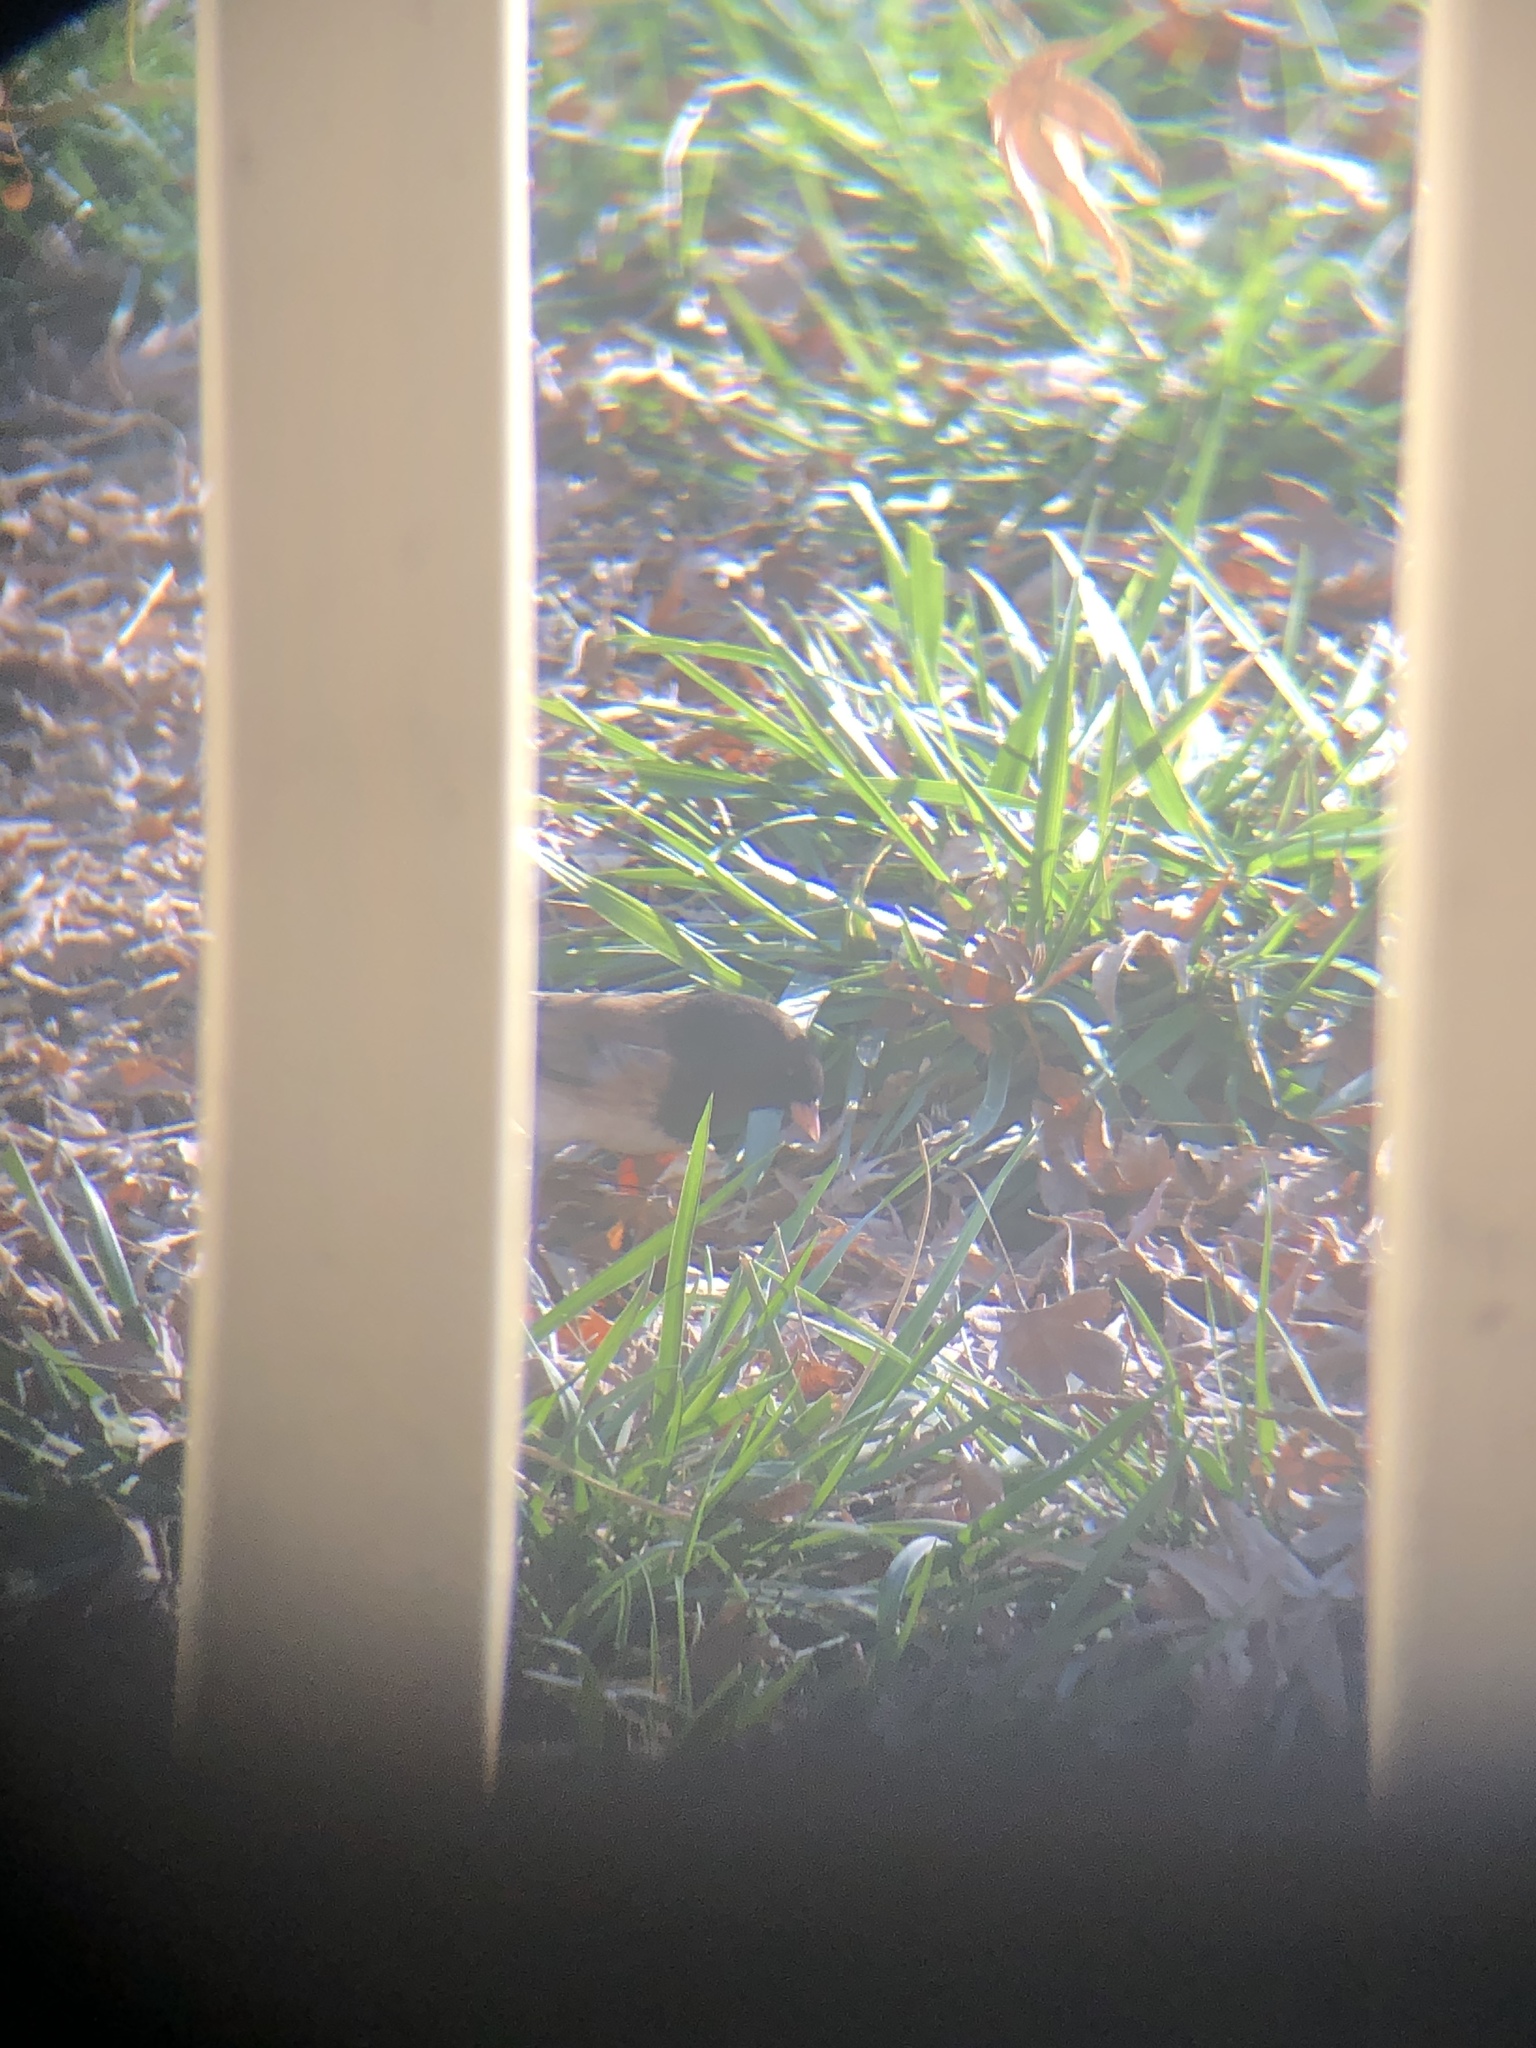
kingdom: Animalia
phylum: Chordata
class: Aves
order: Passeriformes
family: Passerellidae
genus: Junco
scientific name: Junco hyemalis
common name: Dark-eyed junco
